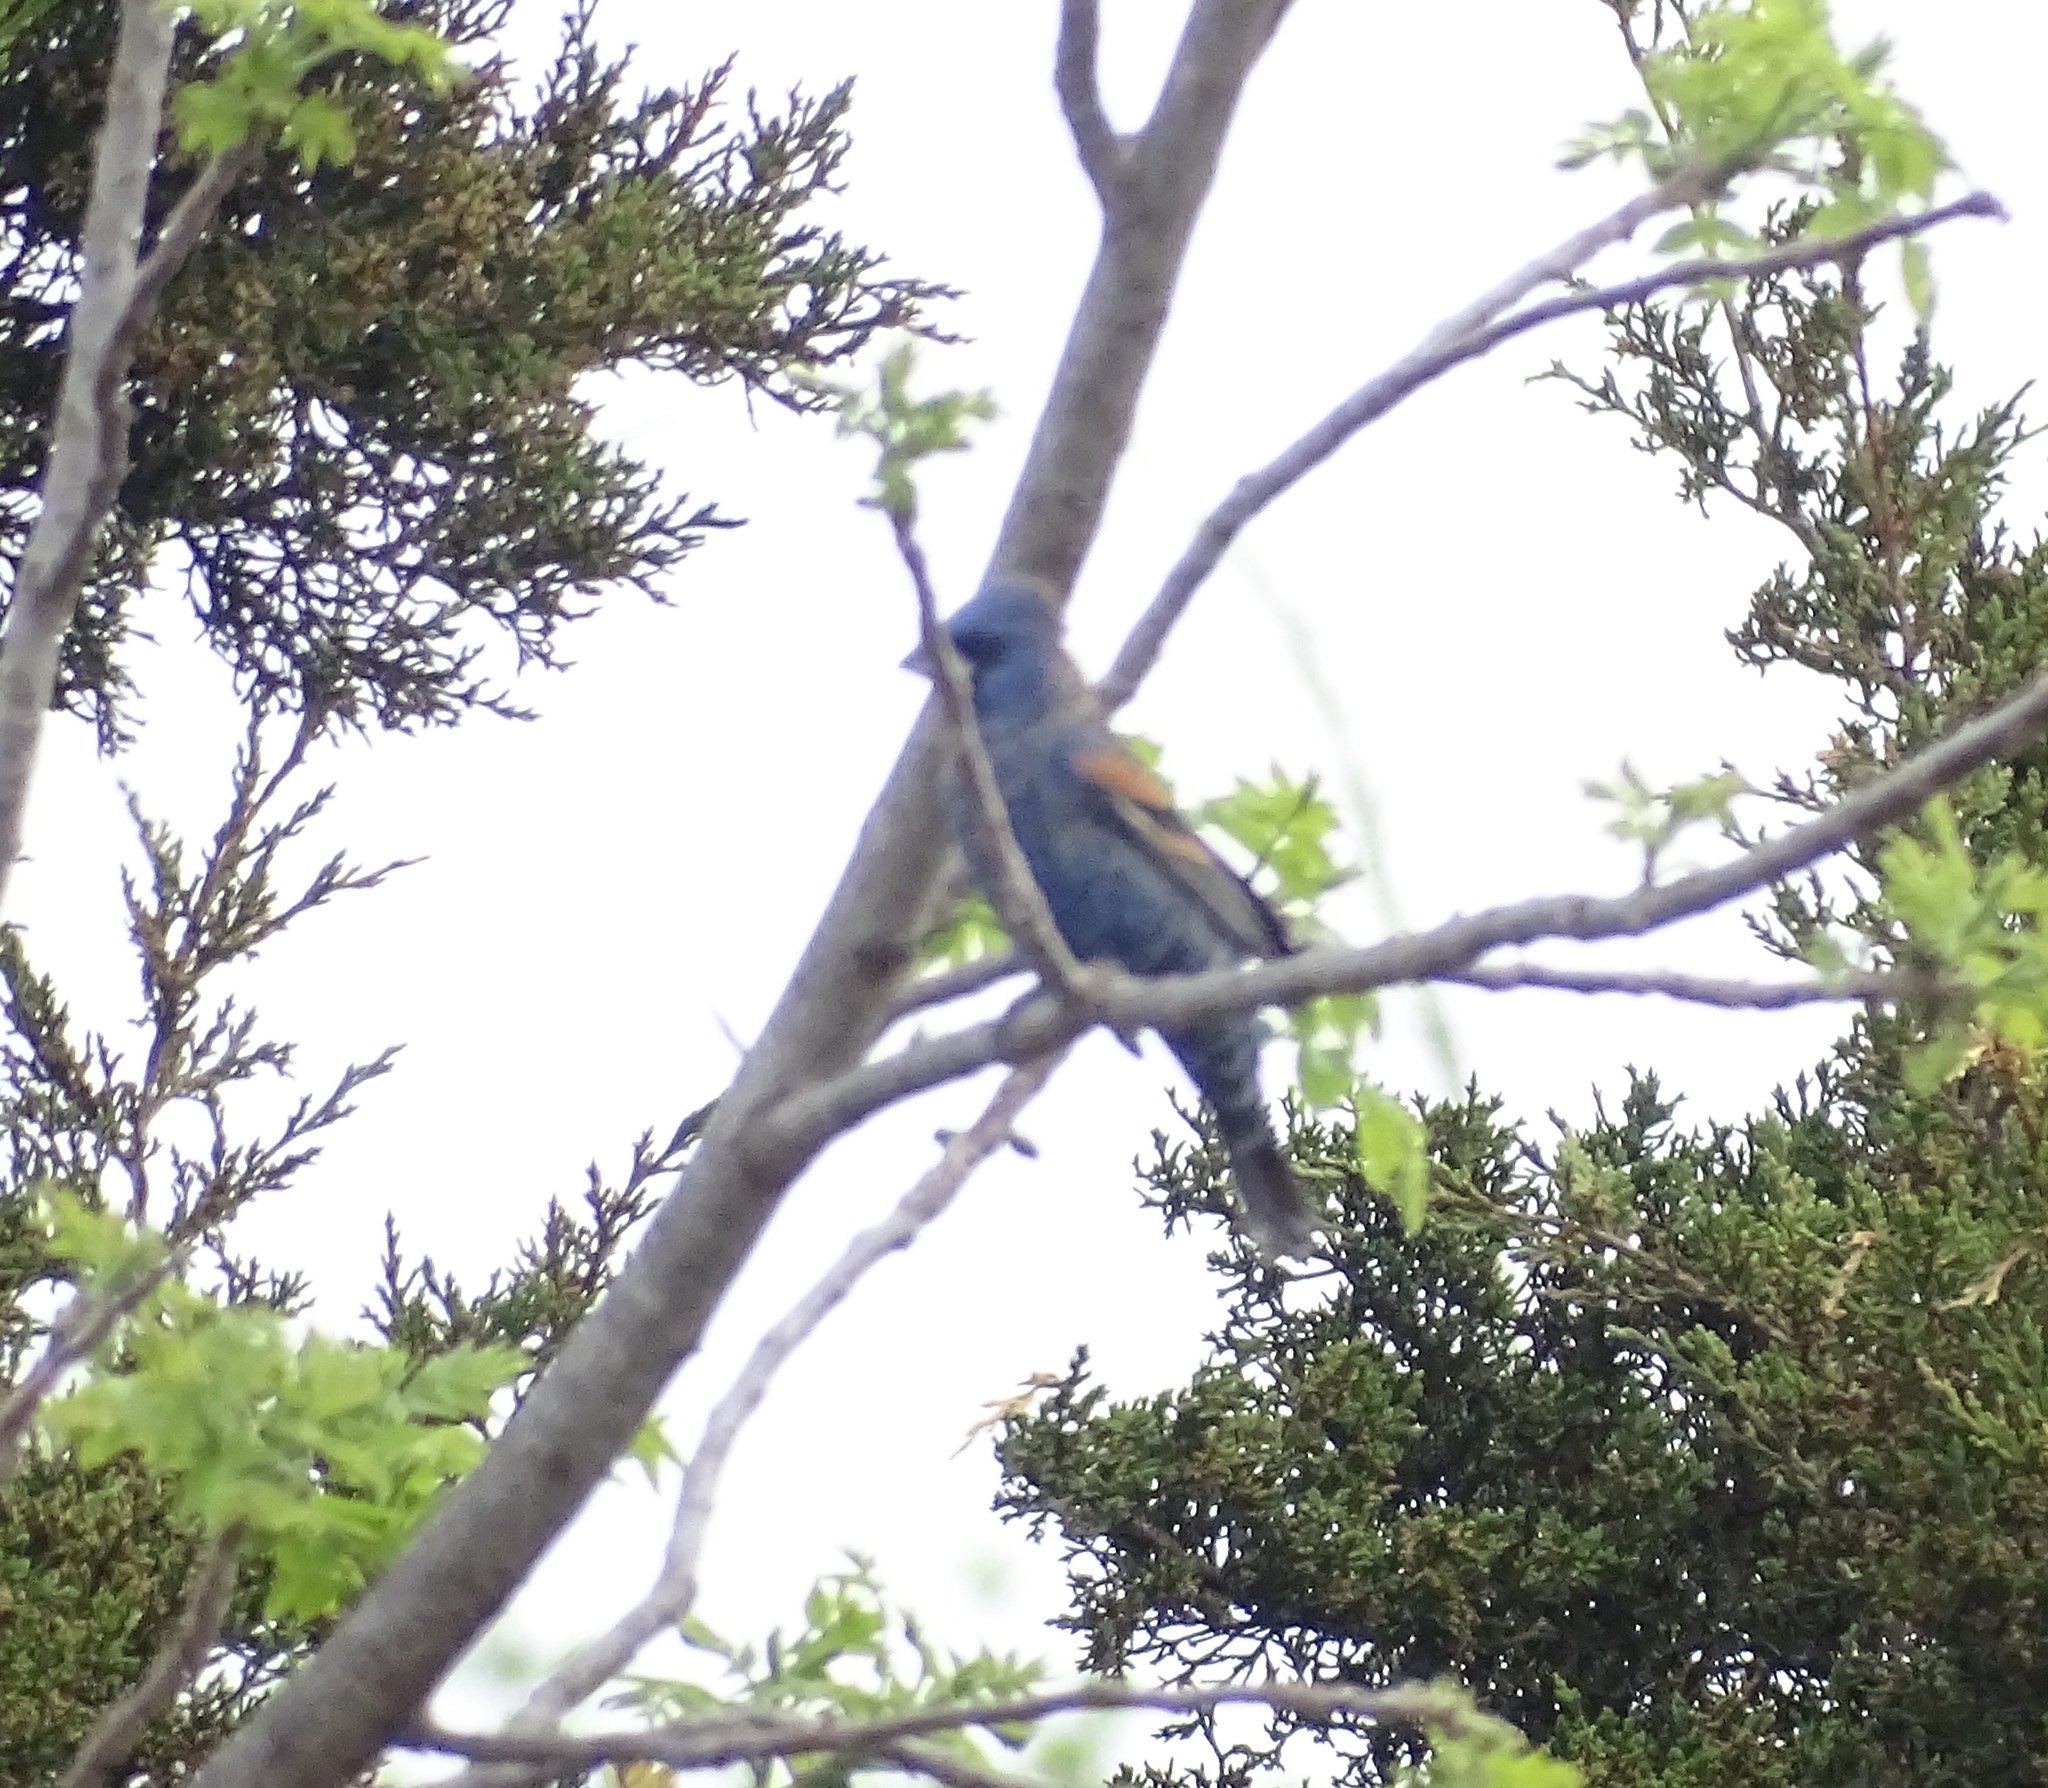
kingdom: Animalia
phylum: Chordata
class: Aves
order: Passeriformes
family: Cardinalidae
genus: Passerina
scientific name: Passerina caerulea
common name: Blue grosbeak
